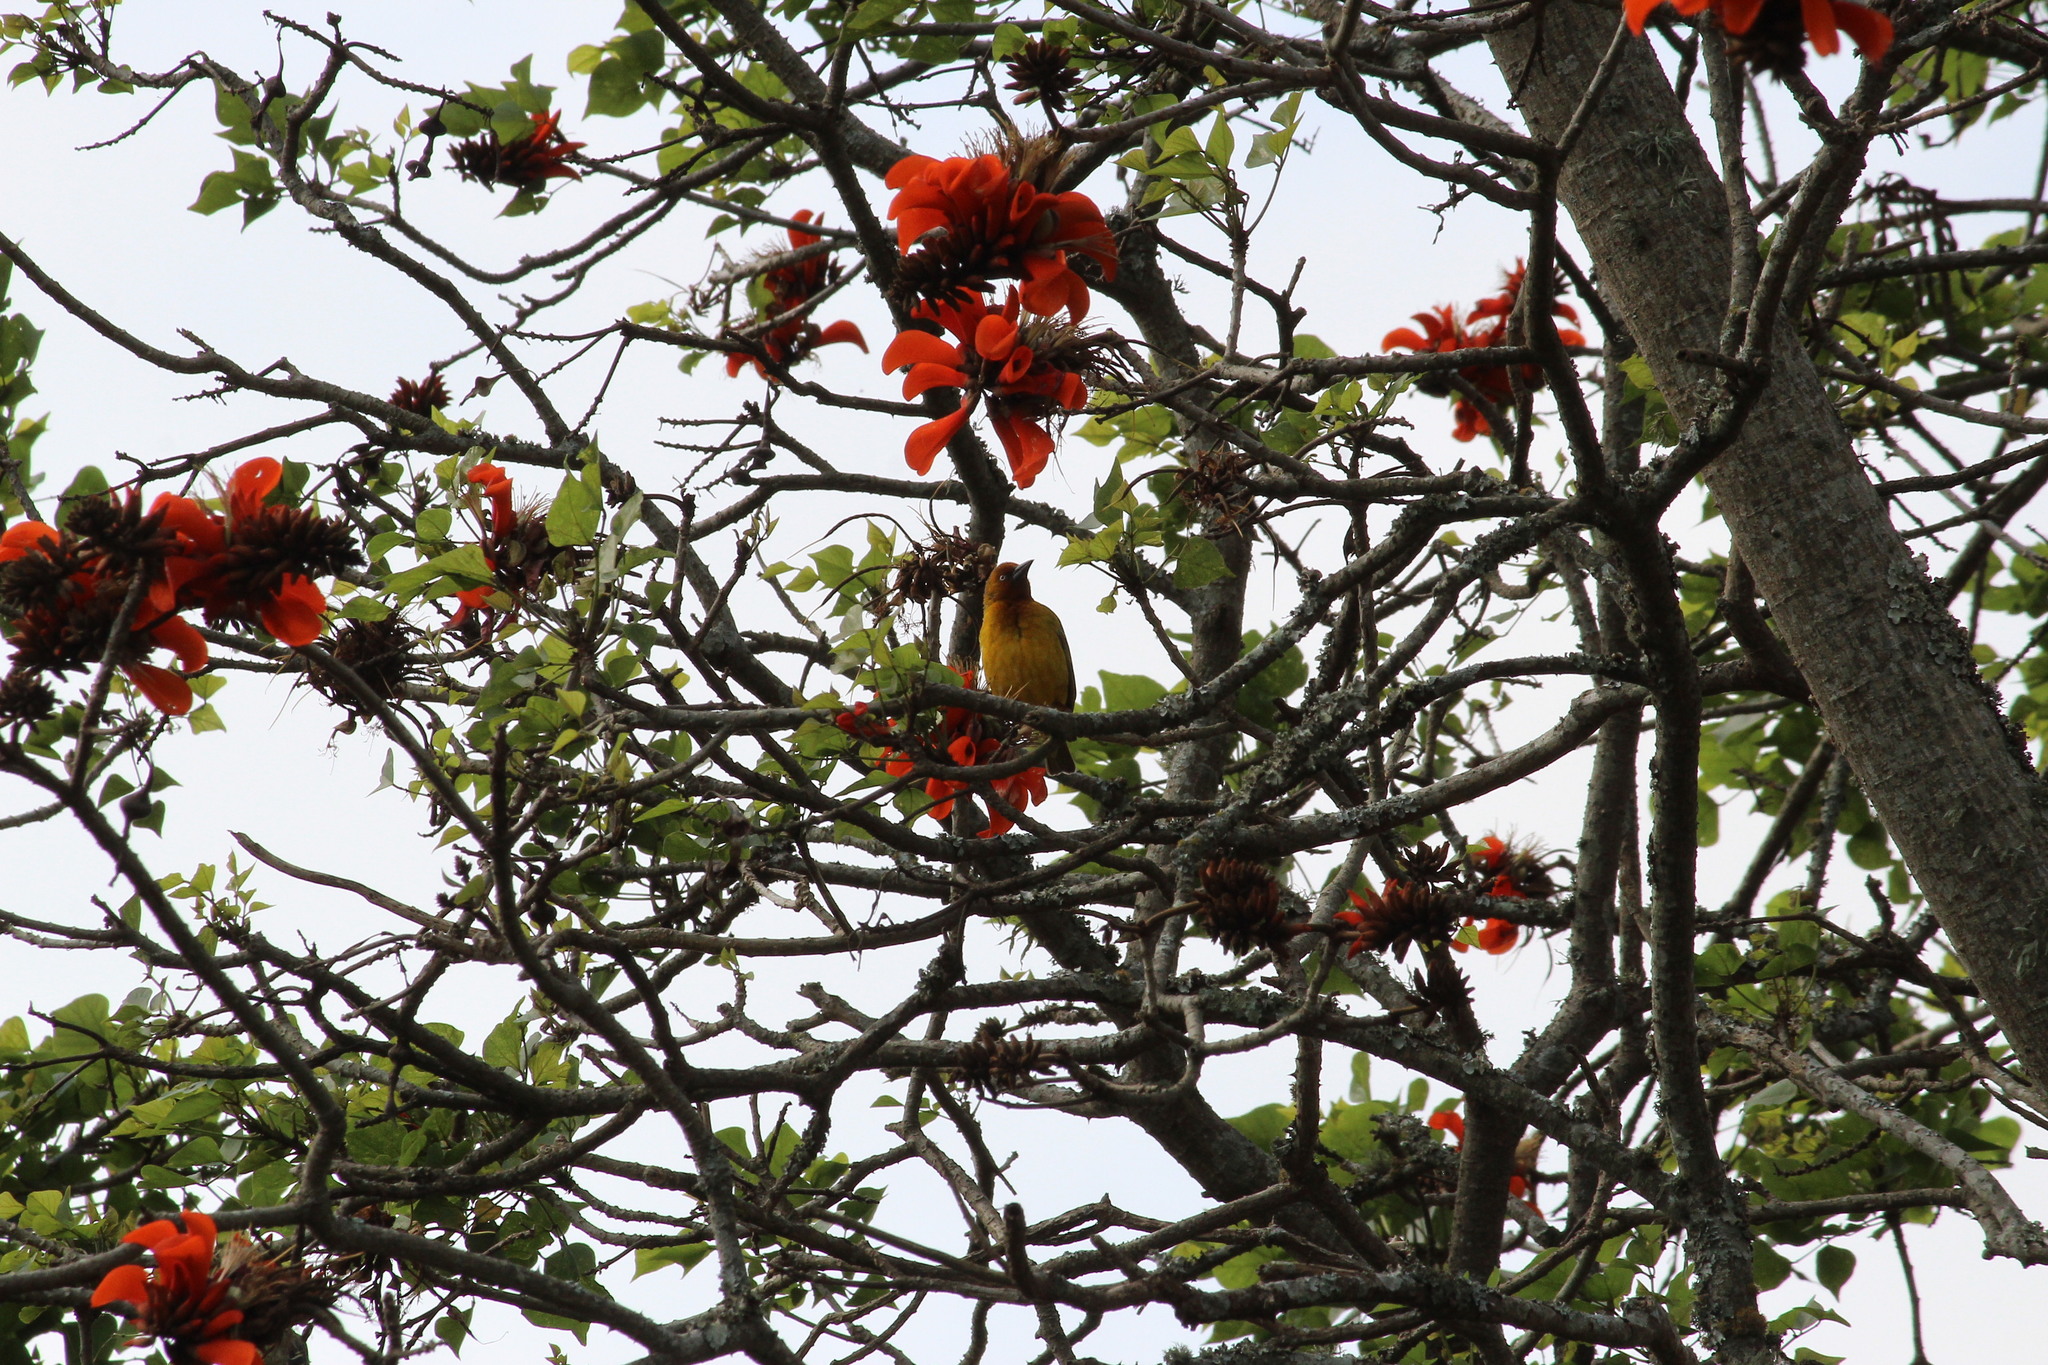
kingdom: Animalia
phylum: Chordata
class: Aves
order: Passeriformes
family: Ploceidae
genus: Ploceus
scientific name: Ploceus capensis
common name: Cape weaver
